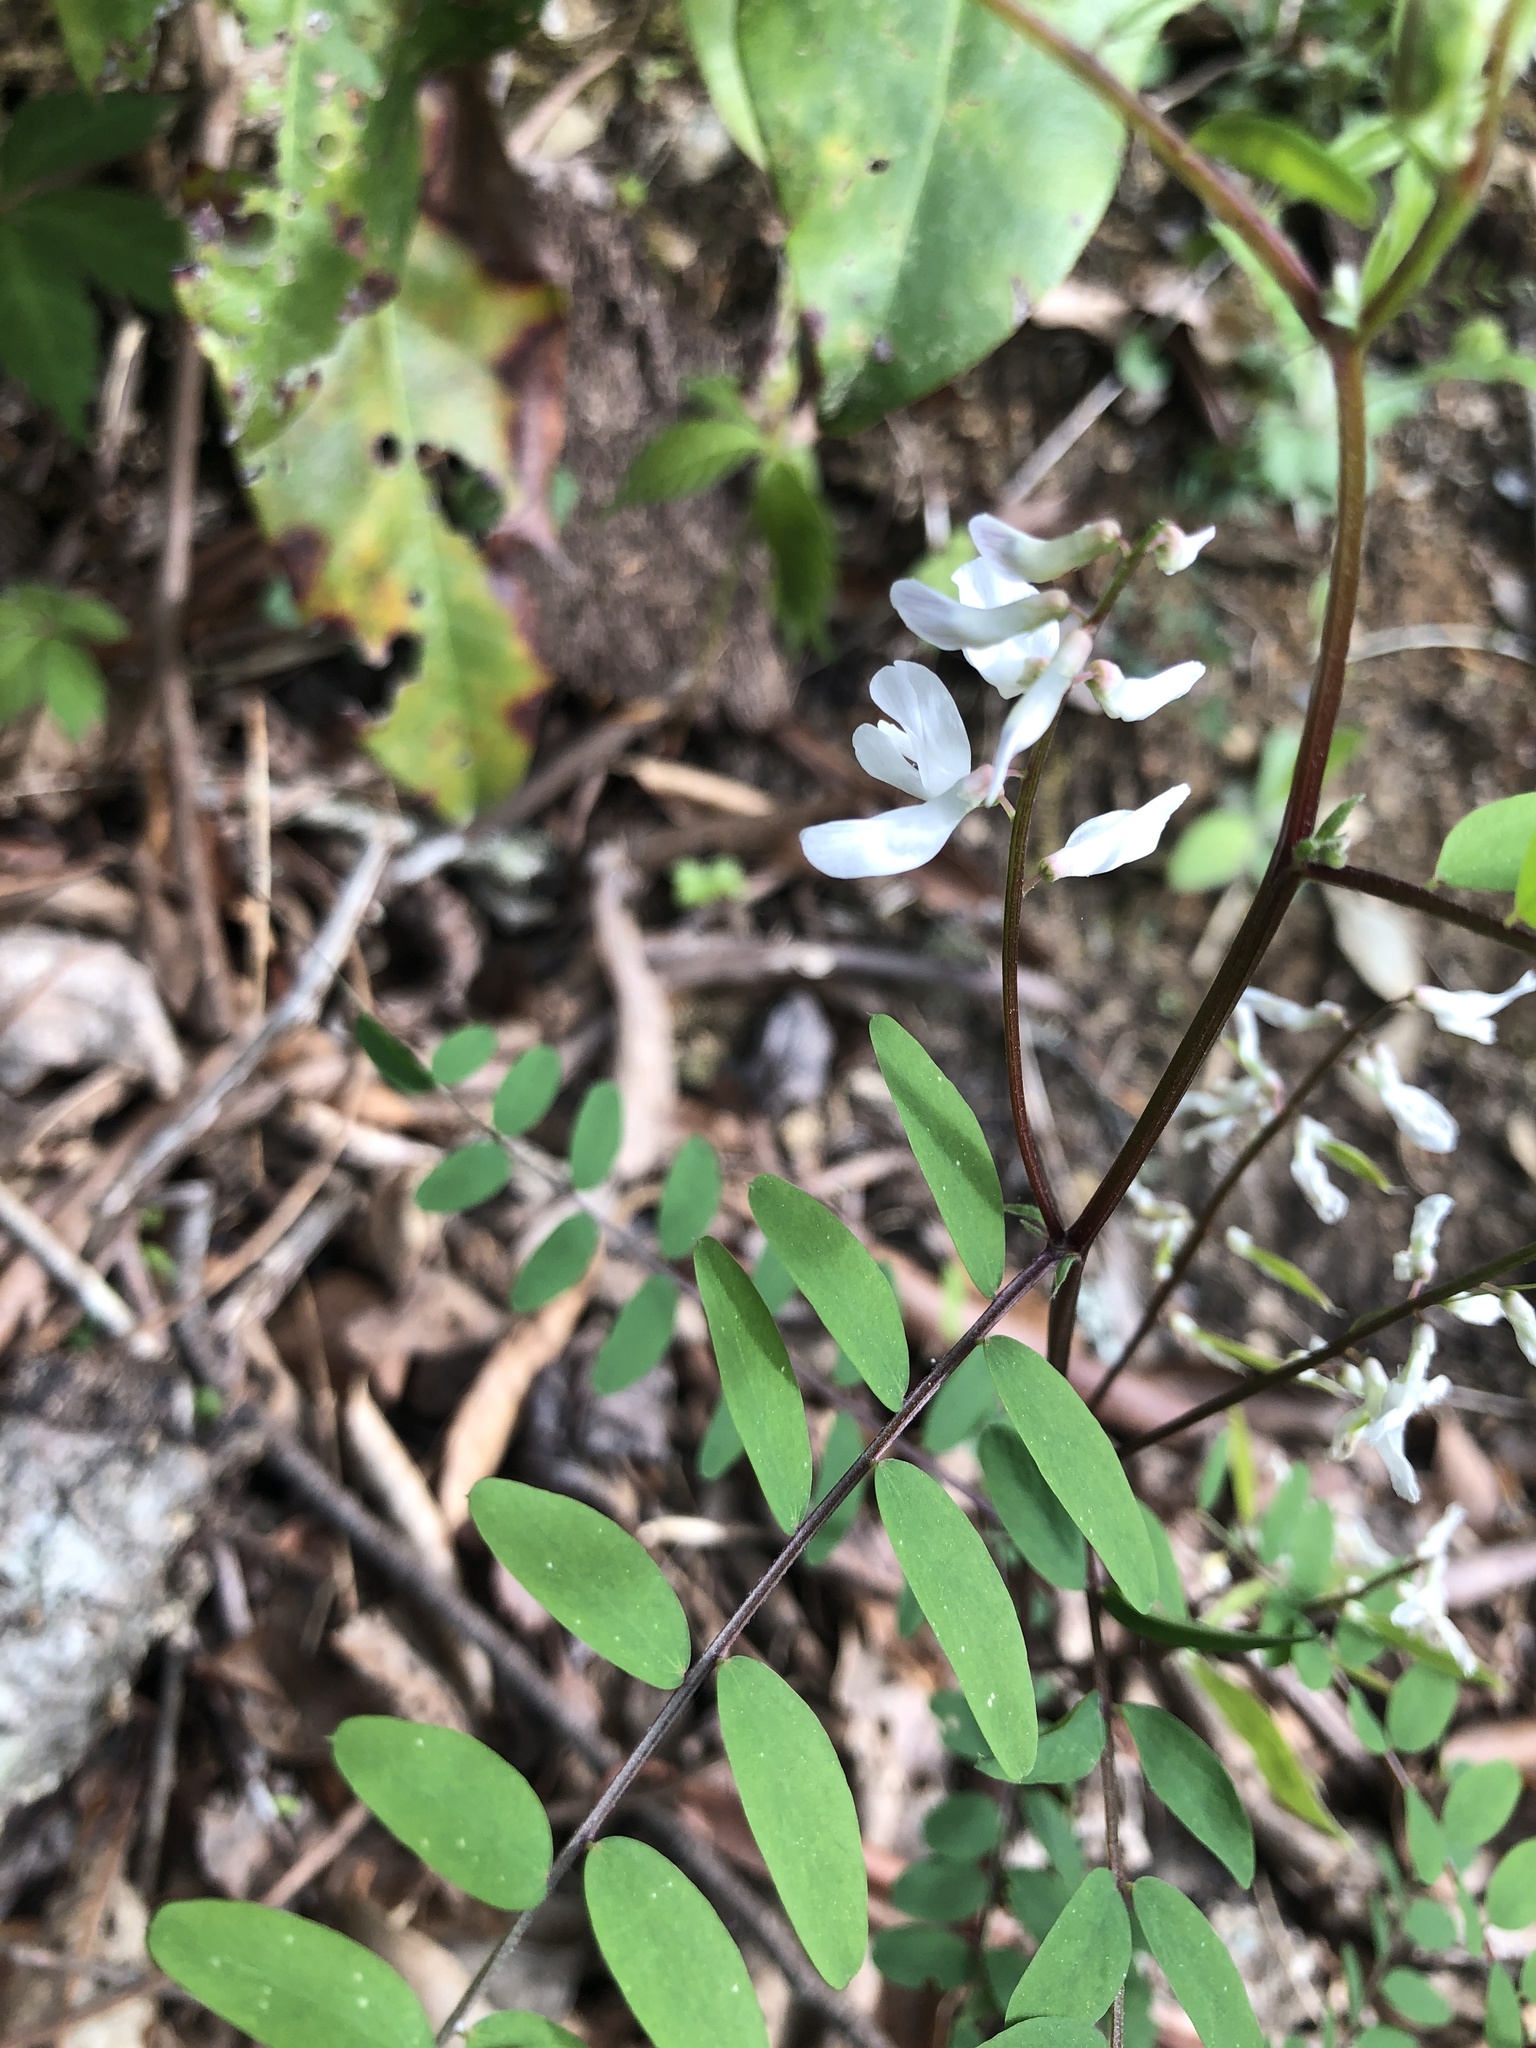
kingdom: Plantae
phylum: Tracheophyta
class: Magnoliopsida
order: Fabales
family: Fabaceae
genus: Vicia
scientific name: Vicia caroliniana
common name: Carolina vetch
